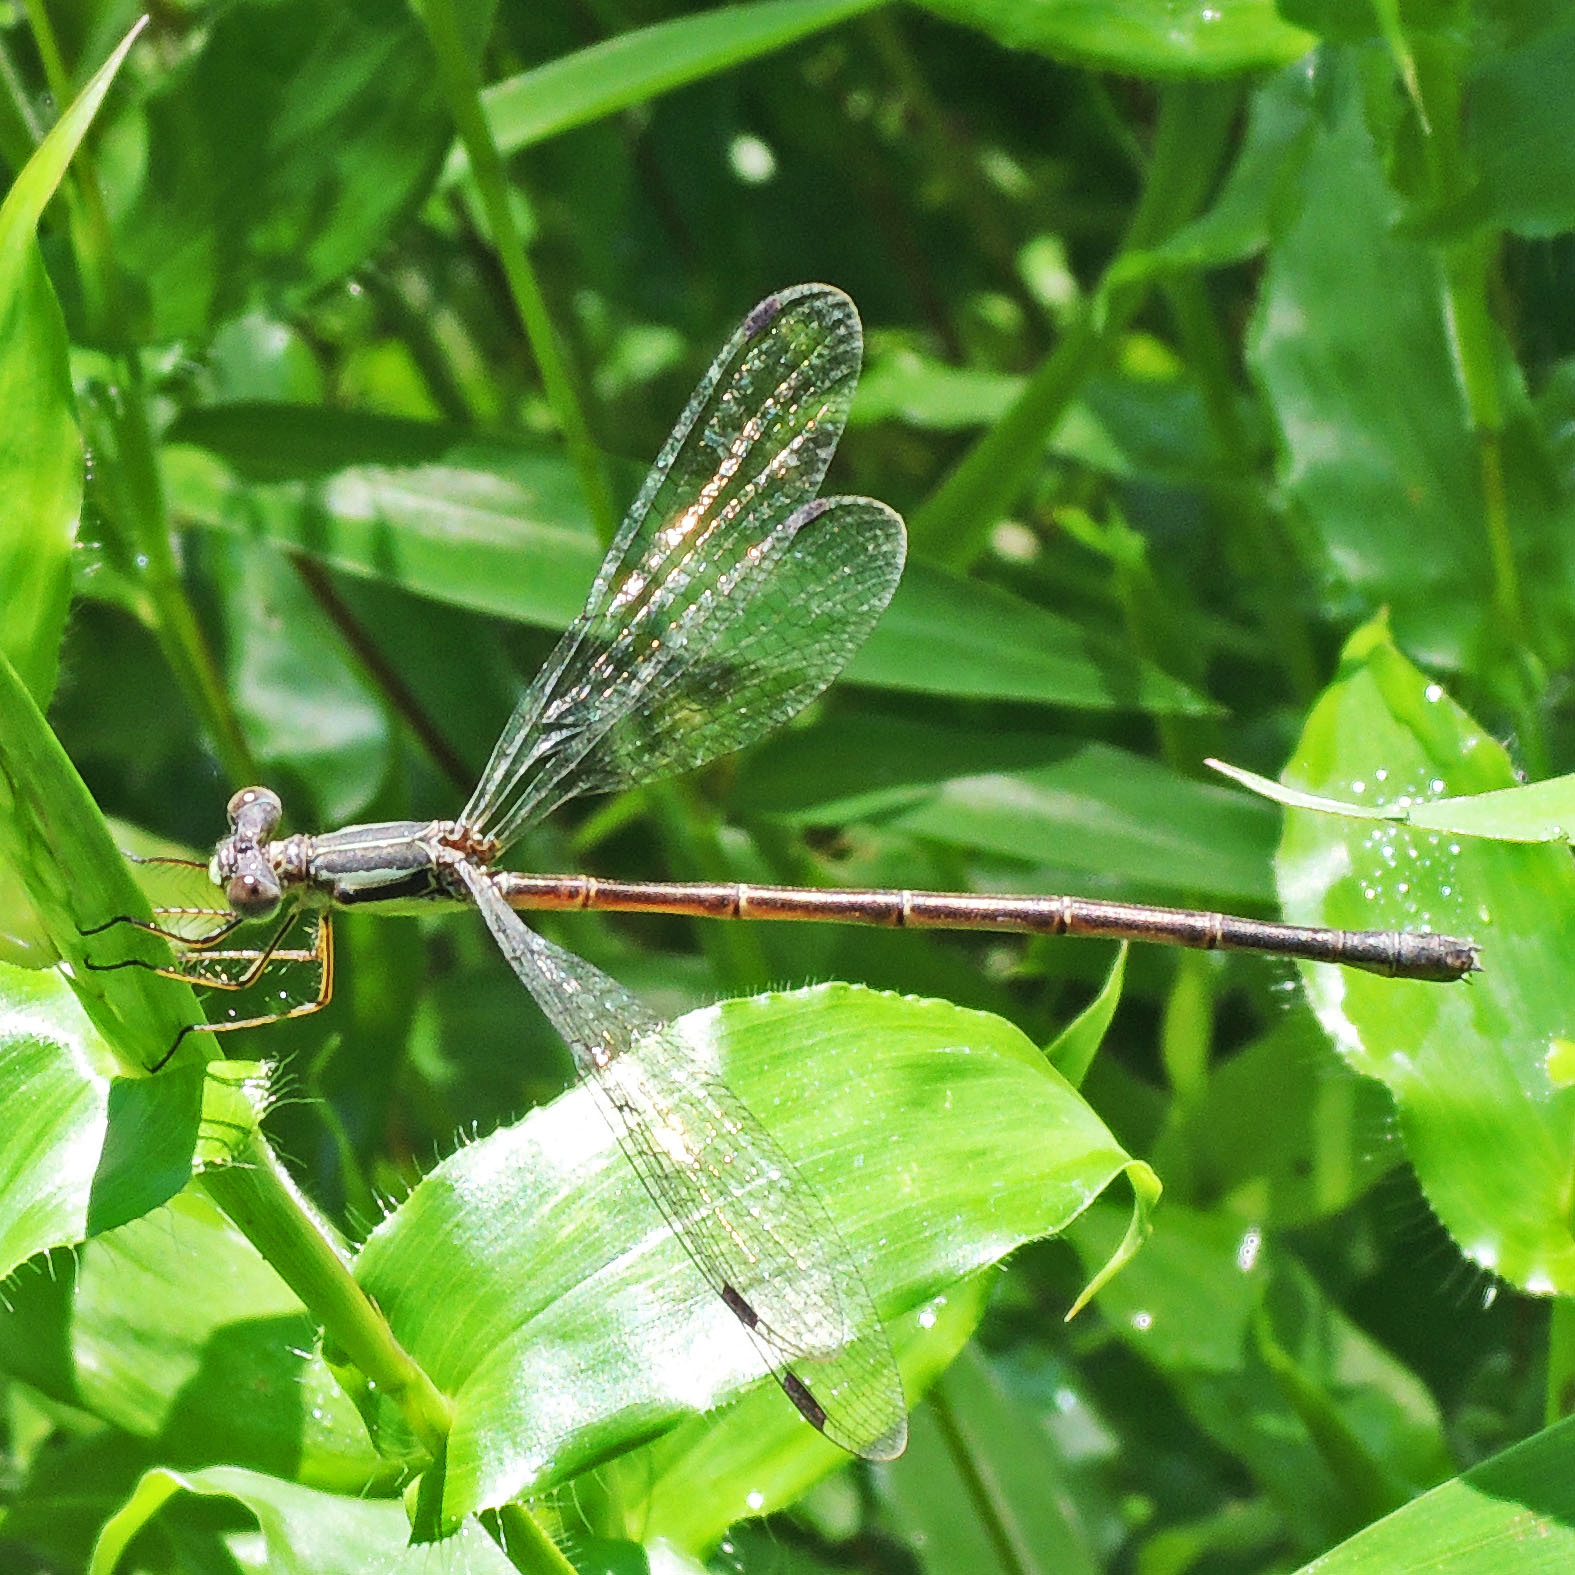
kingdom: Animalia
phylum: Arthropoda
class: Insecta
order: Odonata
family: Lestidae
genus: Lestes
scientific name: Lestes rectangularis
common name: Slender spreadwing
